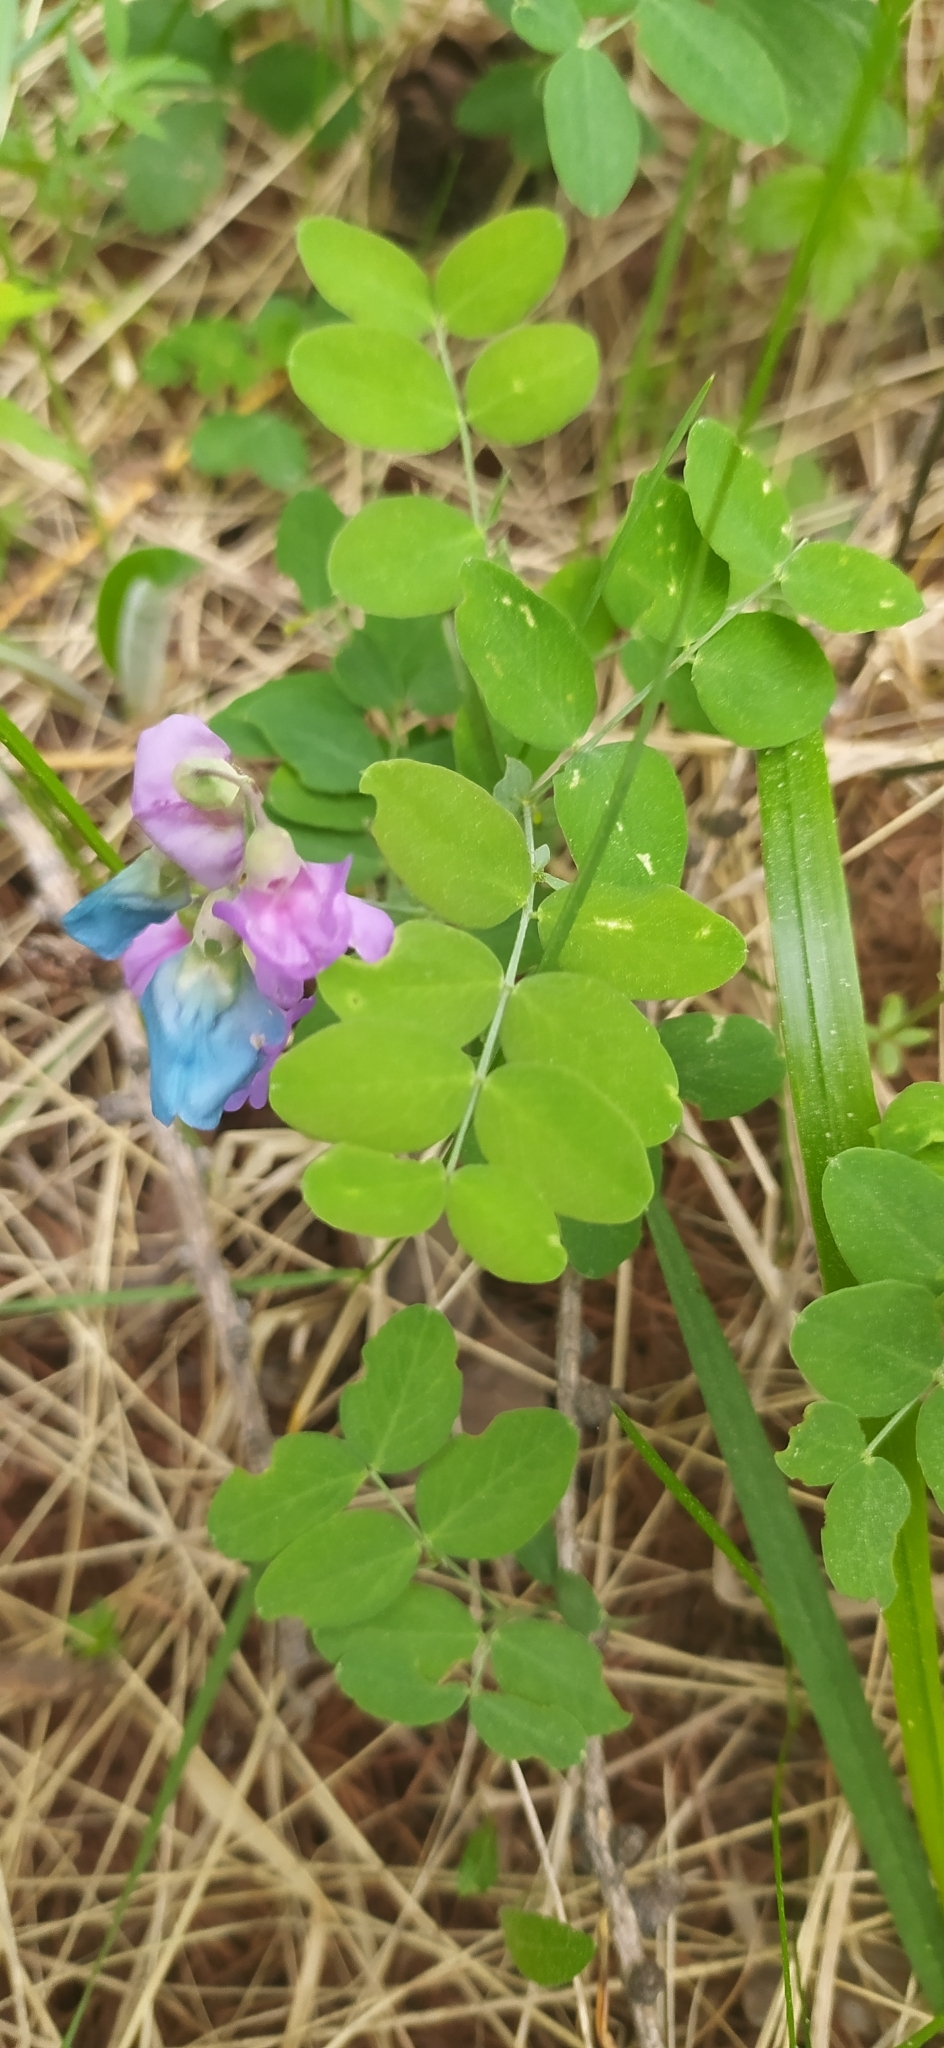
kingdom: Plantae
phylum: Tracheophyta
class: Magnoliopsida
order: Fabales
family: Fabaceae
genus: Lathyrus
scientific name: Lathyrus humilis
